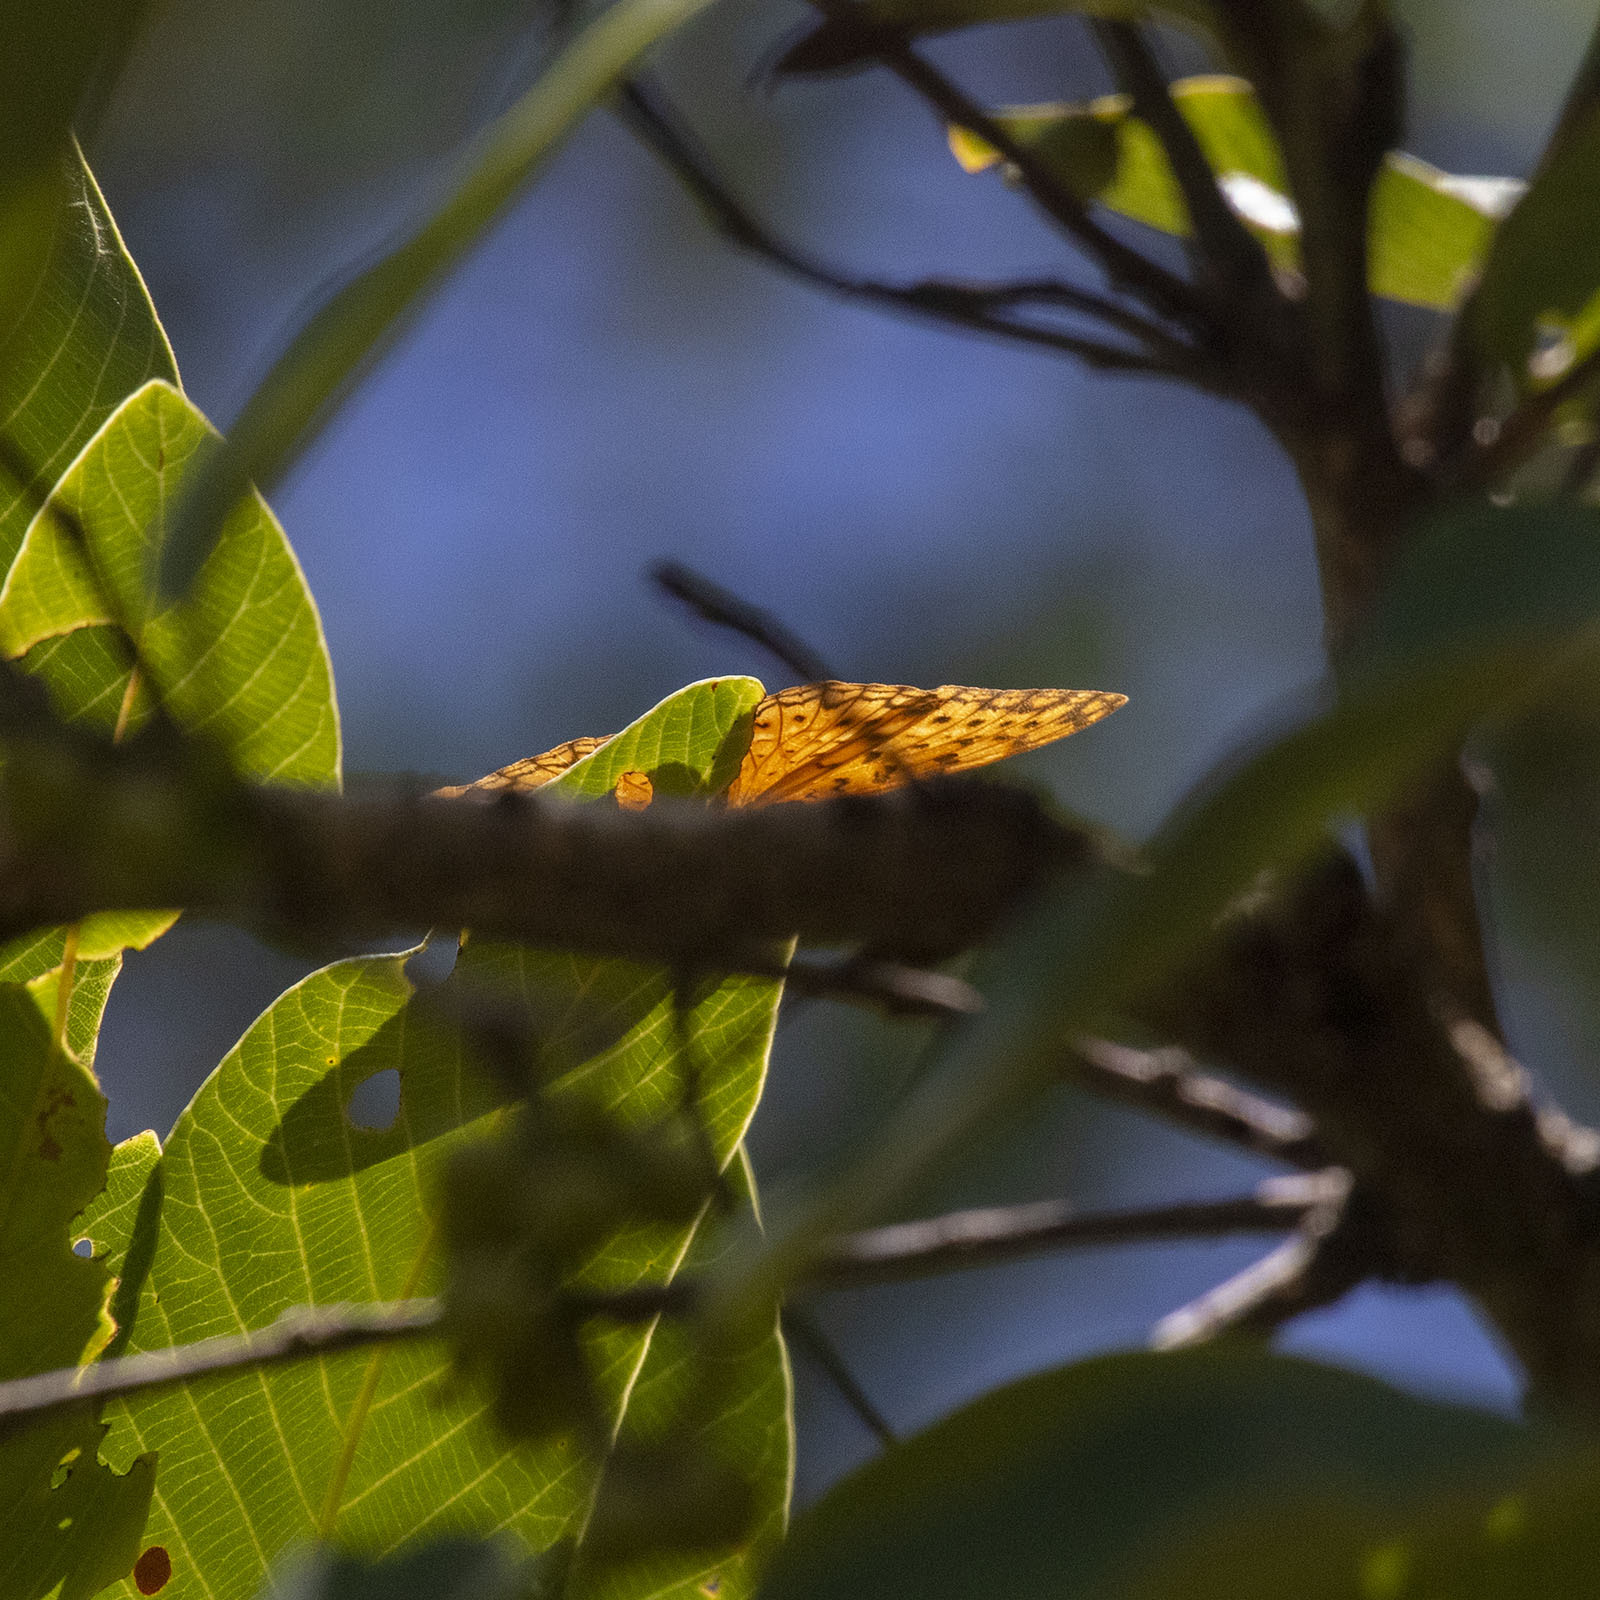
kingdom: Animalia
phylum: Arthropoda
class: Insecta
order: Lepidoptera
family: Nymphalidae
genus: Phalanta
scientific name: Phalanta phalantha
